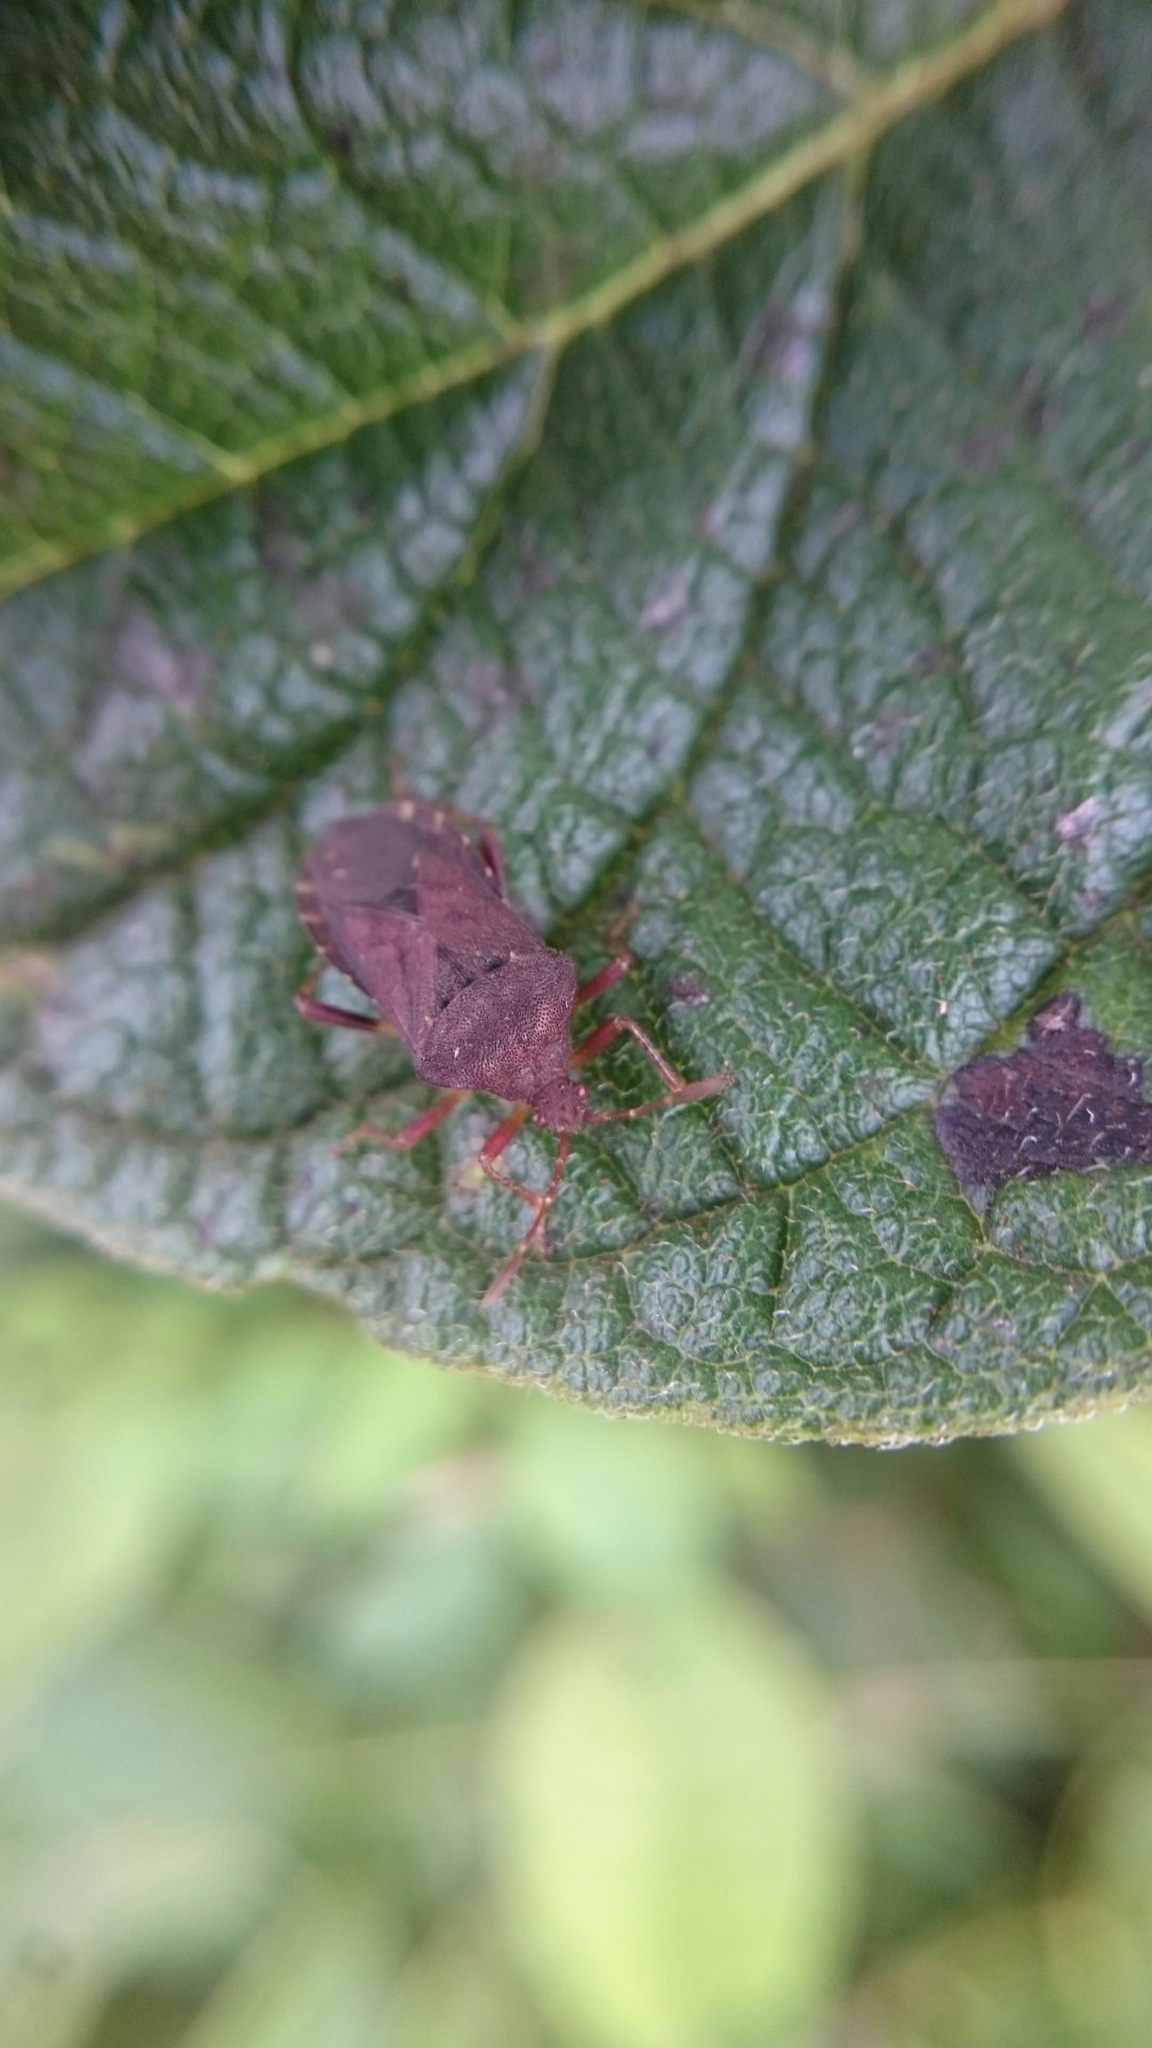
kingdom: Animalia
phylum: Arthropoda
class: Insecta
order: Hemiptera
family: Coreidae
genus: Anasa
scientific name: Anasa scorbutica
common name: Squash bug
